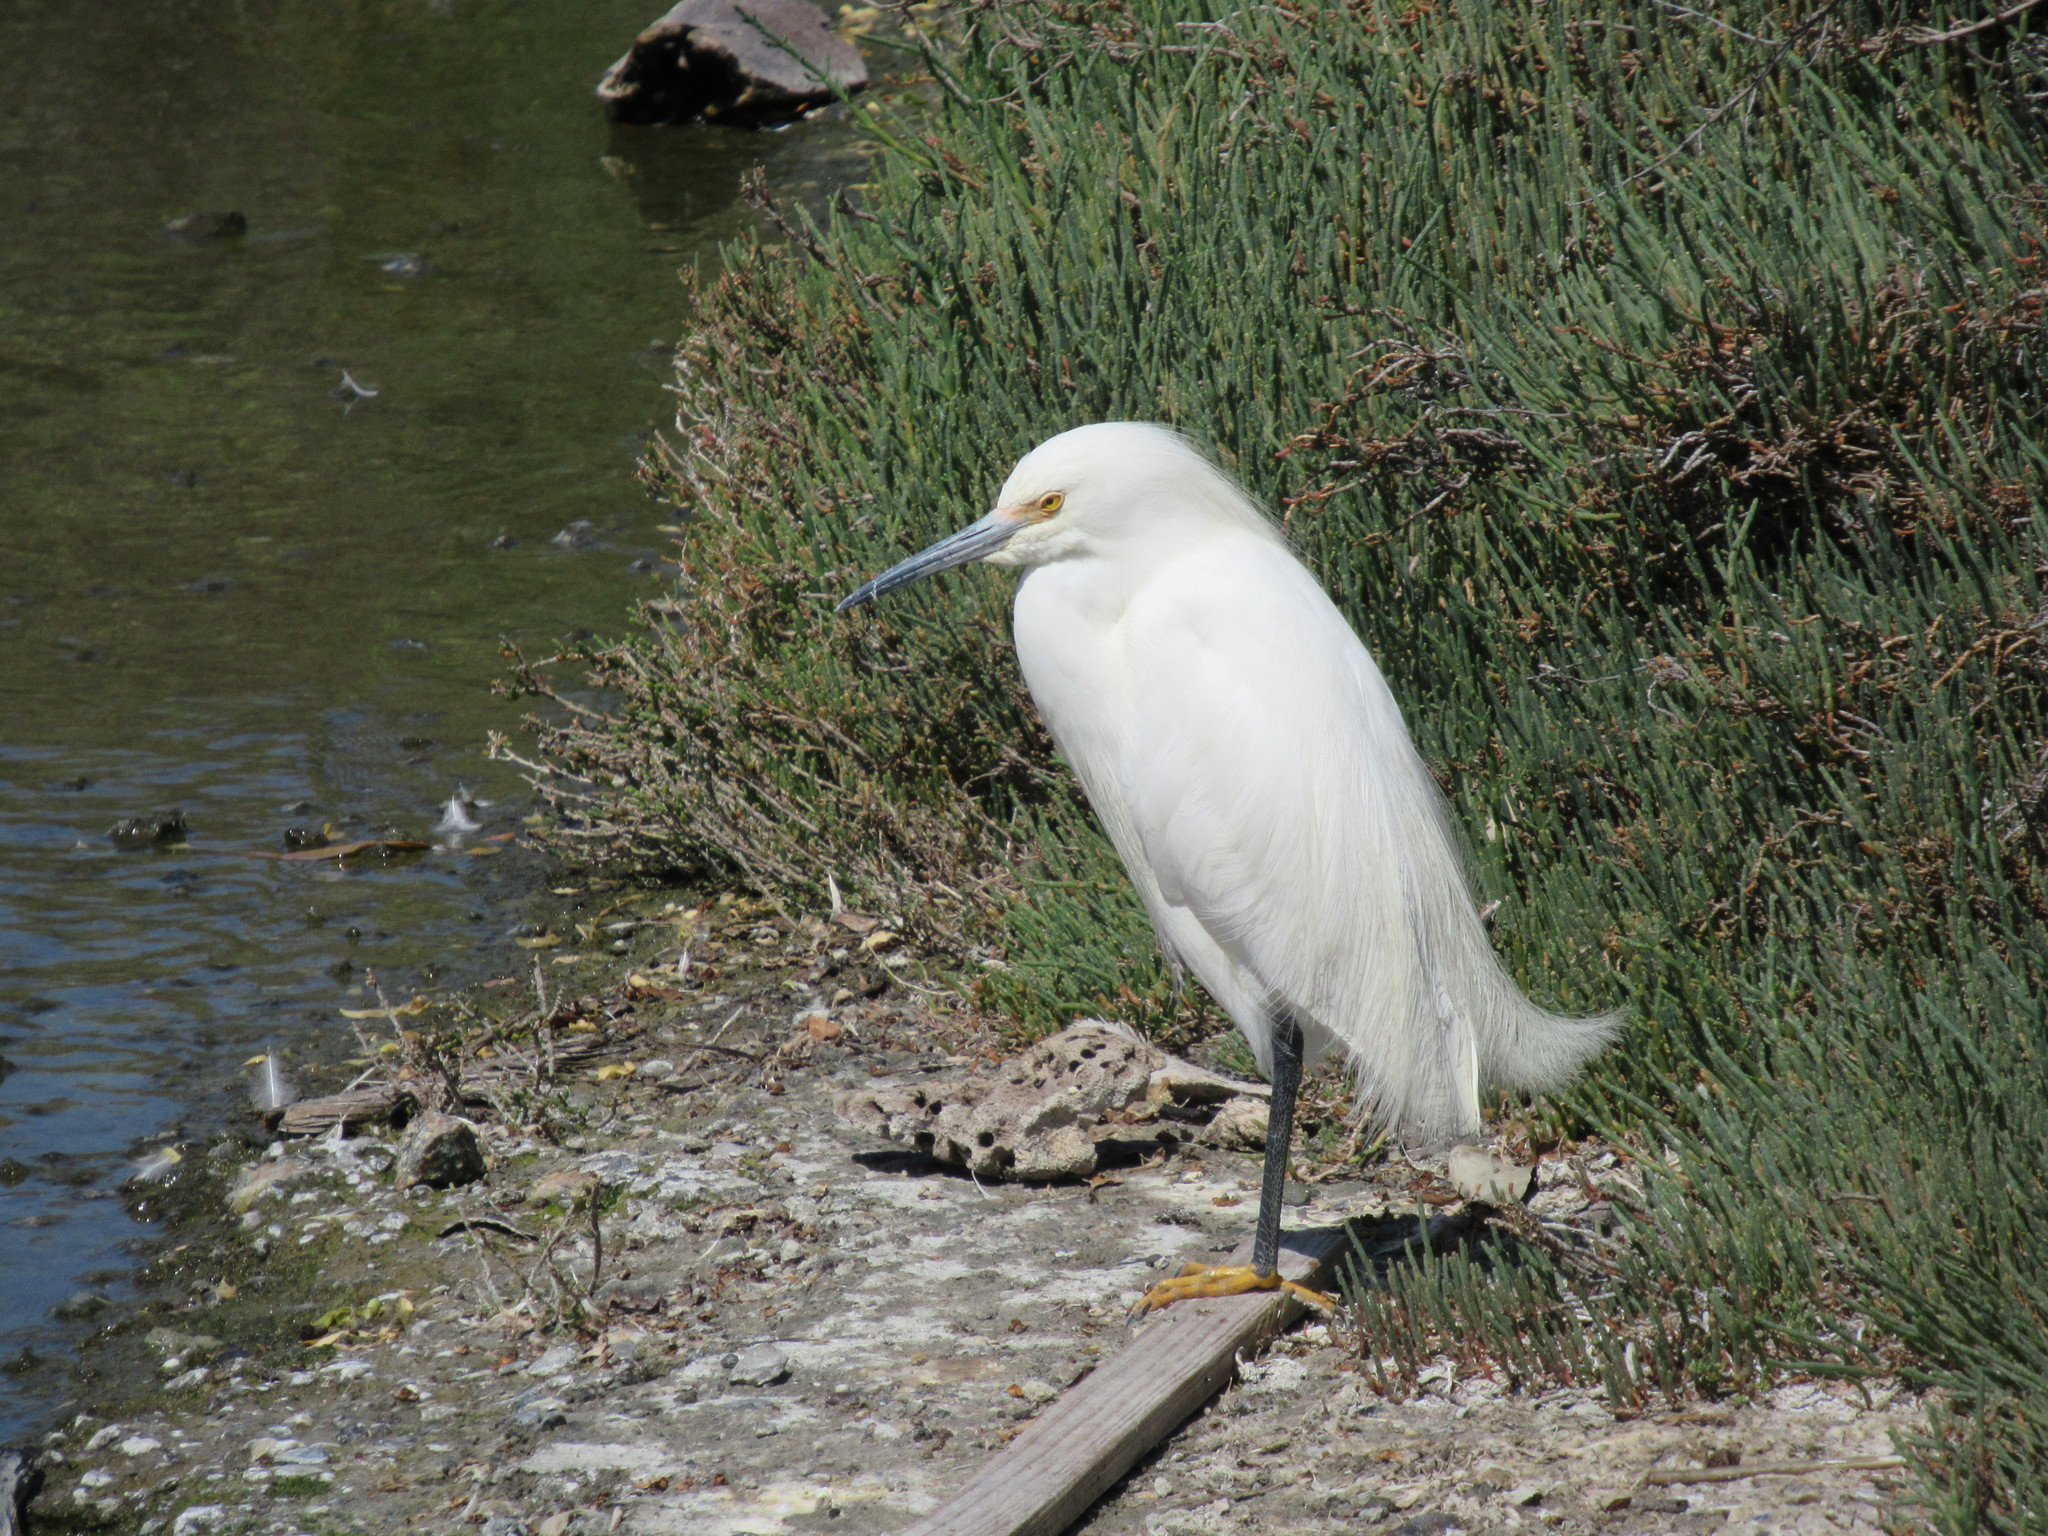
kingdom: Animalia
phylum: Chordata
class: Aves
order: Pelecaniformes
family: Ardeidae
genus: Egretta
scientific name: Egretta thula
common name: Snowy egret
